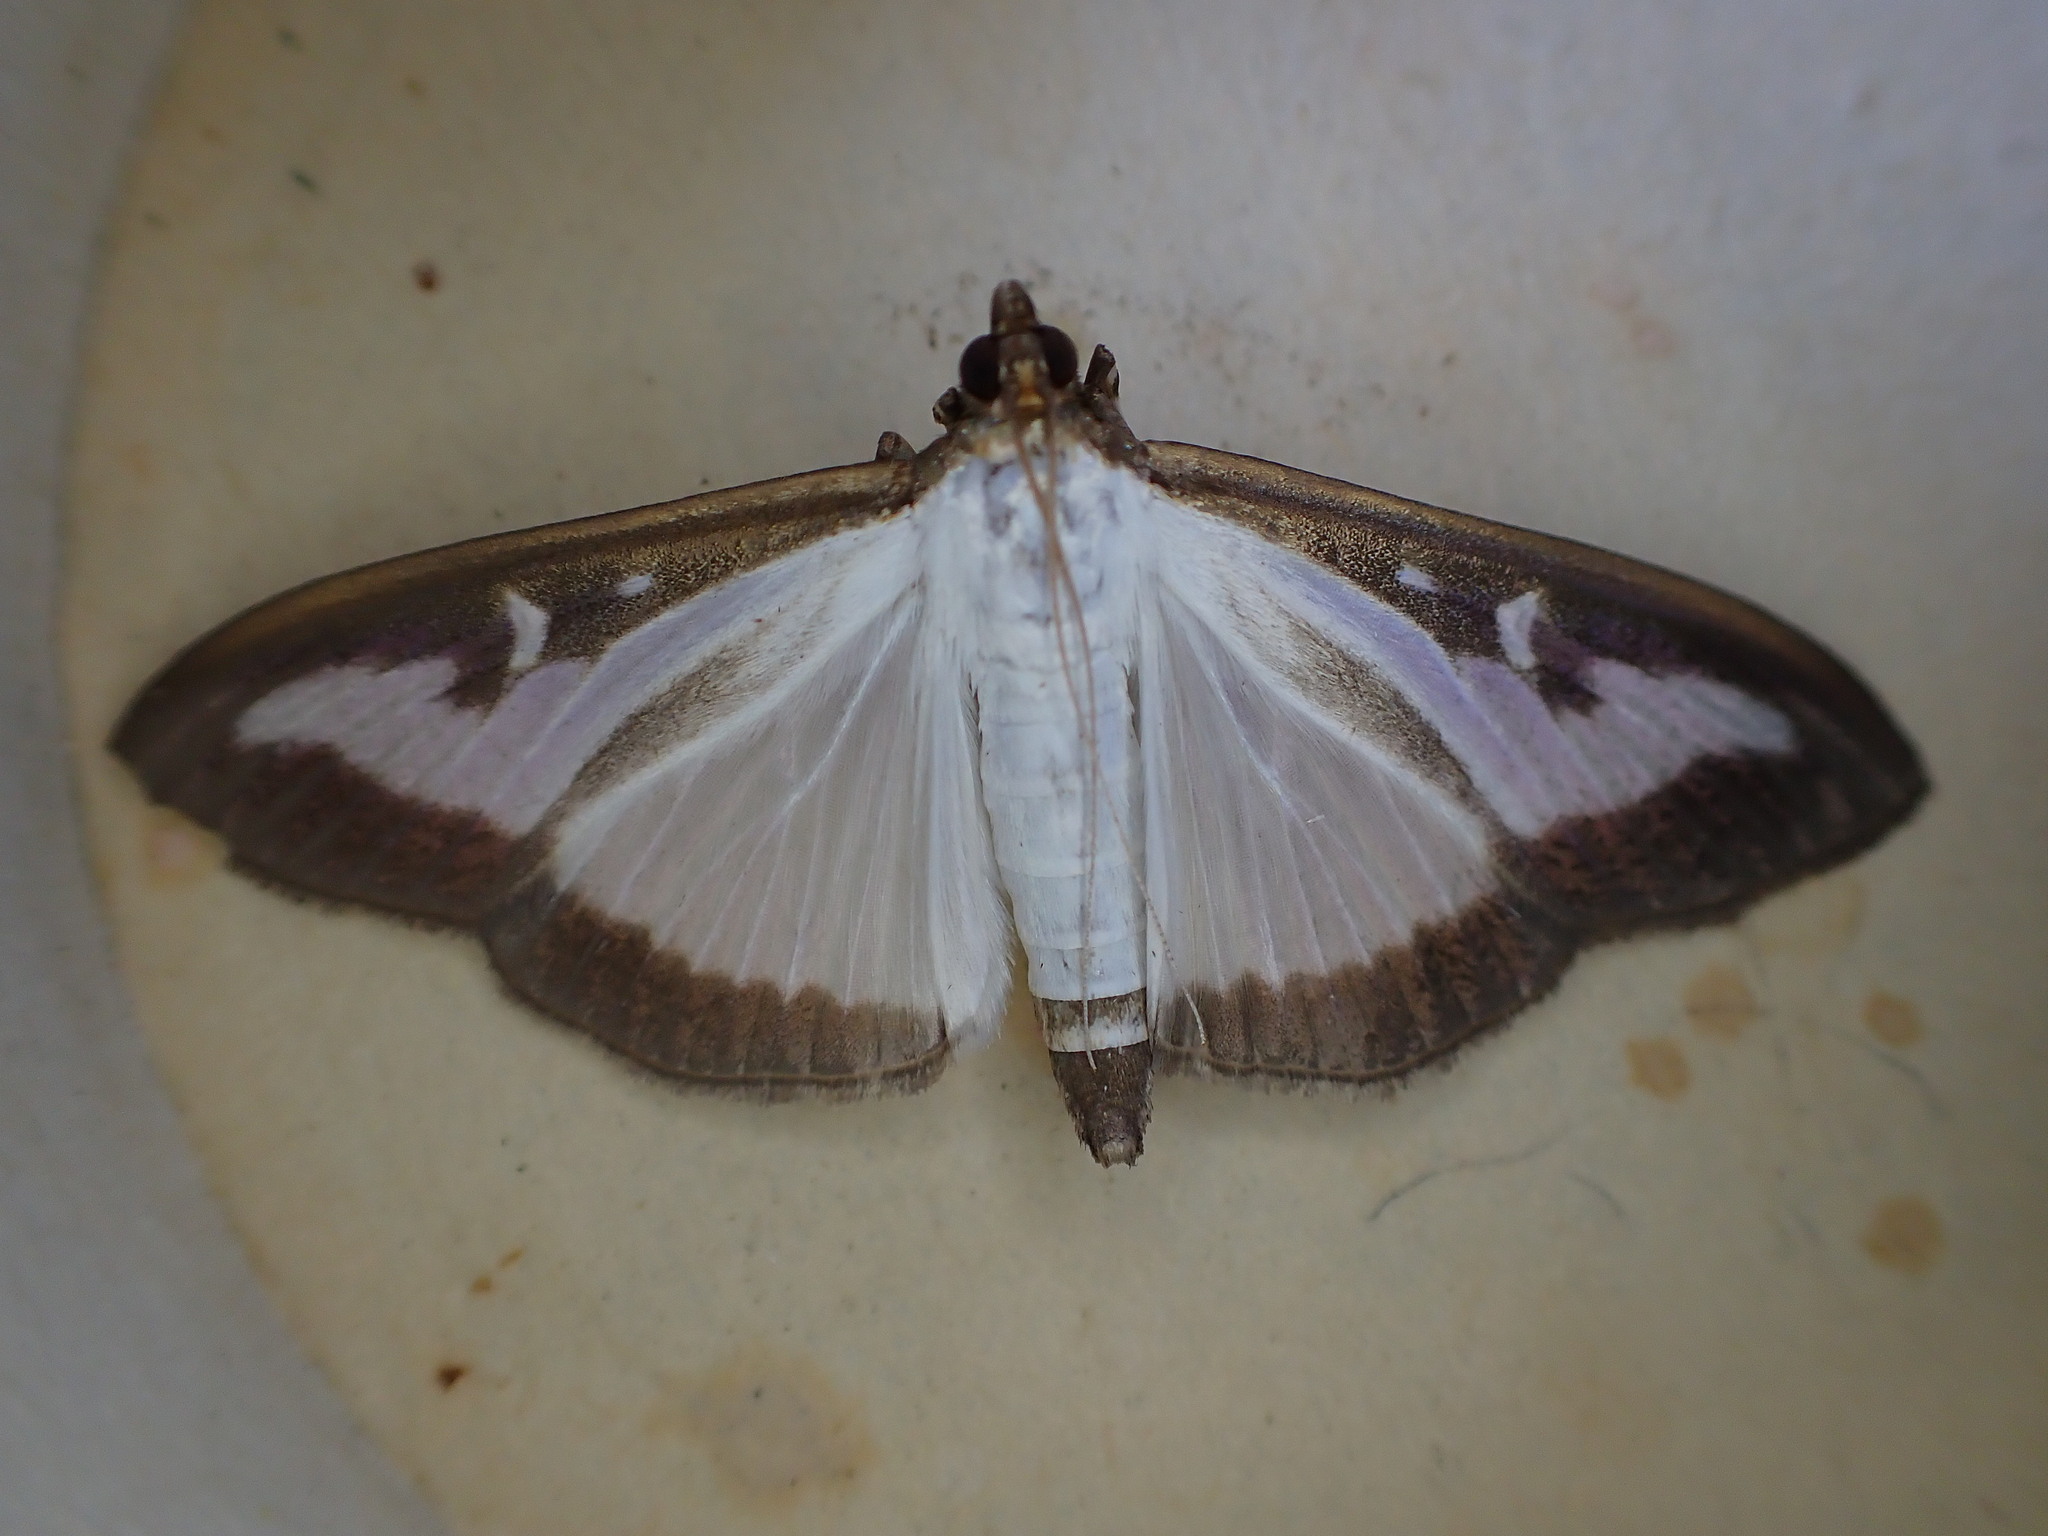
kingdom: Animalia
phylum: Arthropoda
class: Insecta
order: Lepidoptera
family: Crambidae
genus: Cydalima
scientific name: Cydalima perspectalis
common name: Box tree moth
